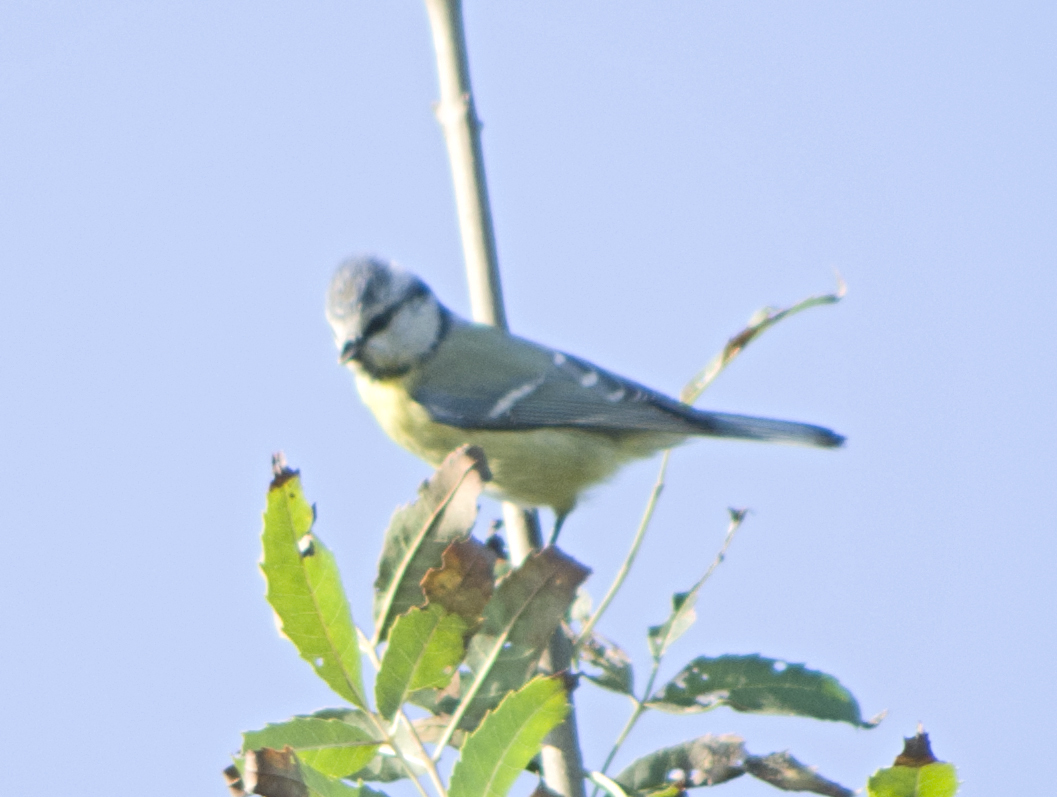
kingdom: Animalia
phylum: Chordata
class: Aves
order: Passeriformes
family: Paridae
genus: Cyanistes
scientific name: Cyanistes caeruleus
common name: Eurasian blue tit
